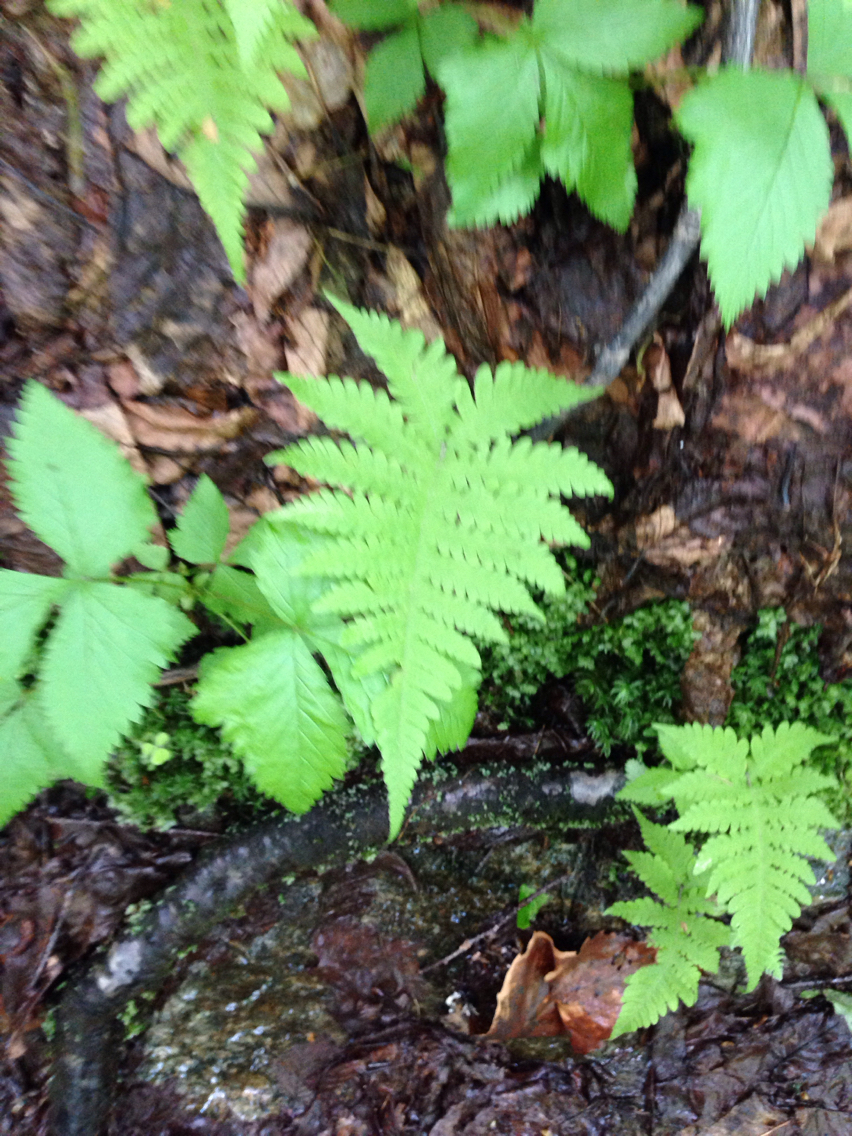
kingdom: Plantae
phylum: Tracheophyta
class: Polypodiopsida
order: Polypodiales
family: Thelypteridaceae
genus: Phegopteris
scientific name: Phegopteris connectilis
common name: Beech fern
